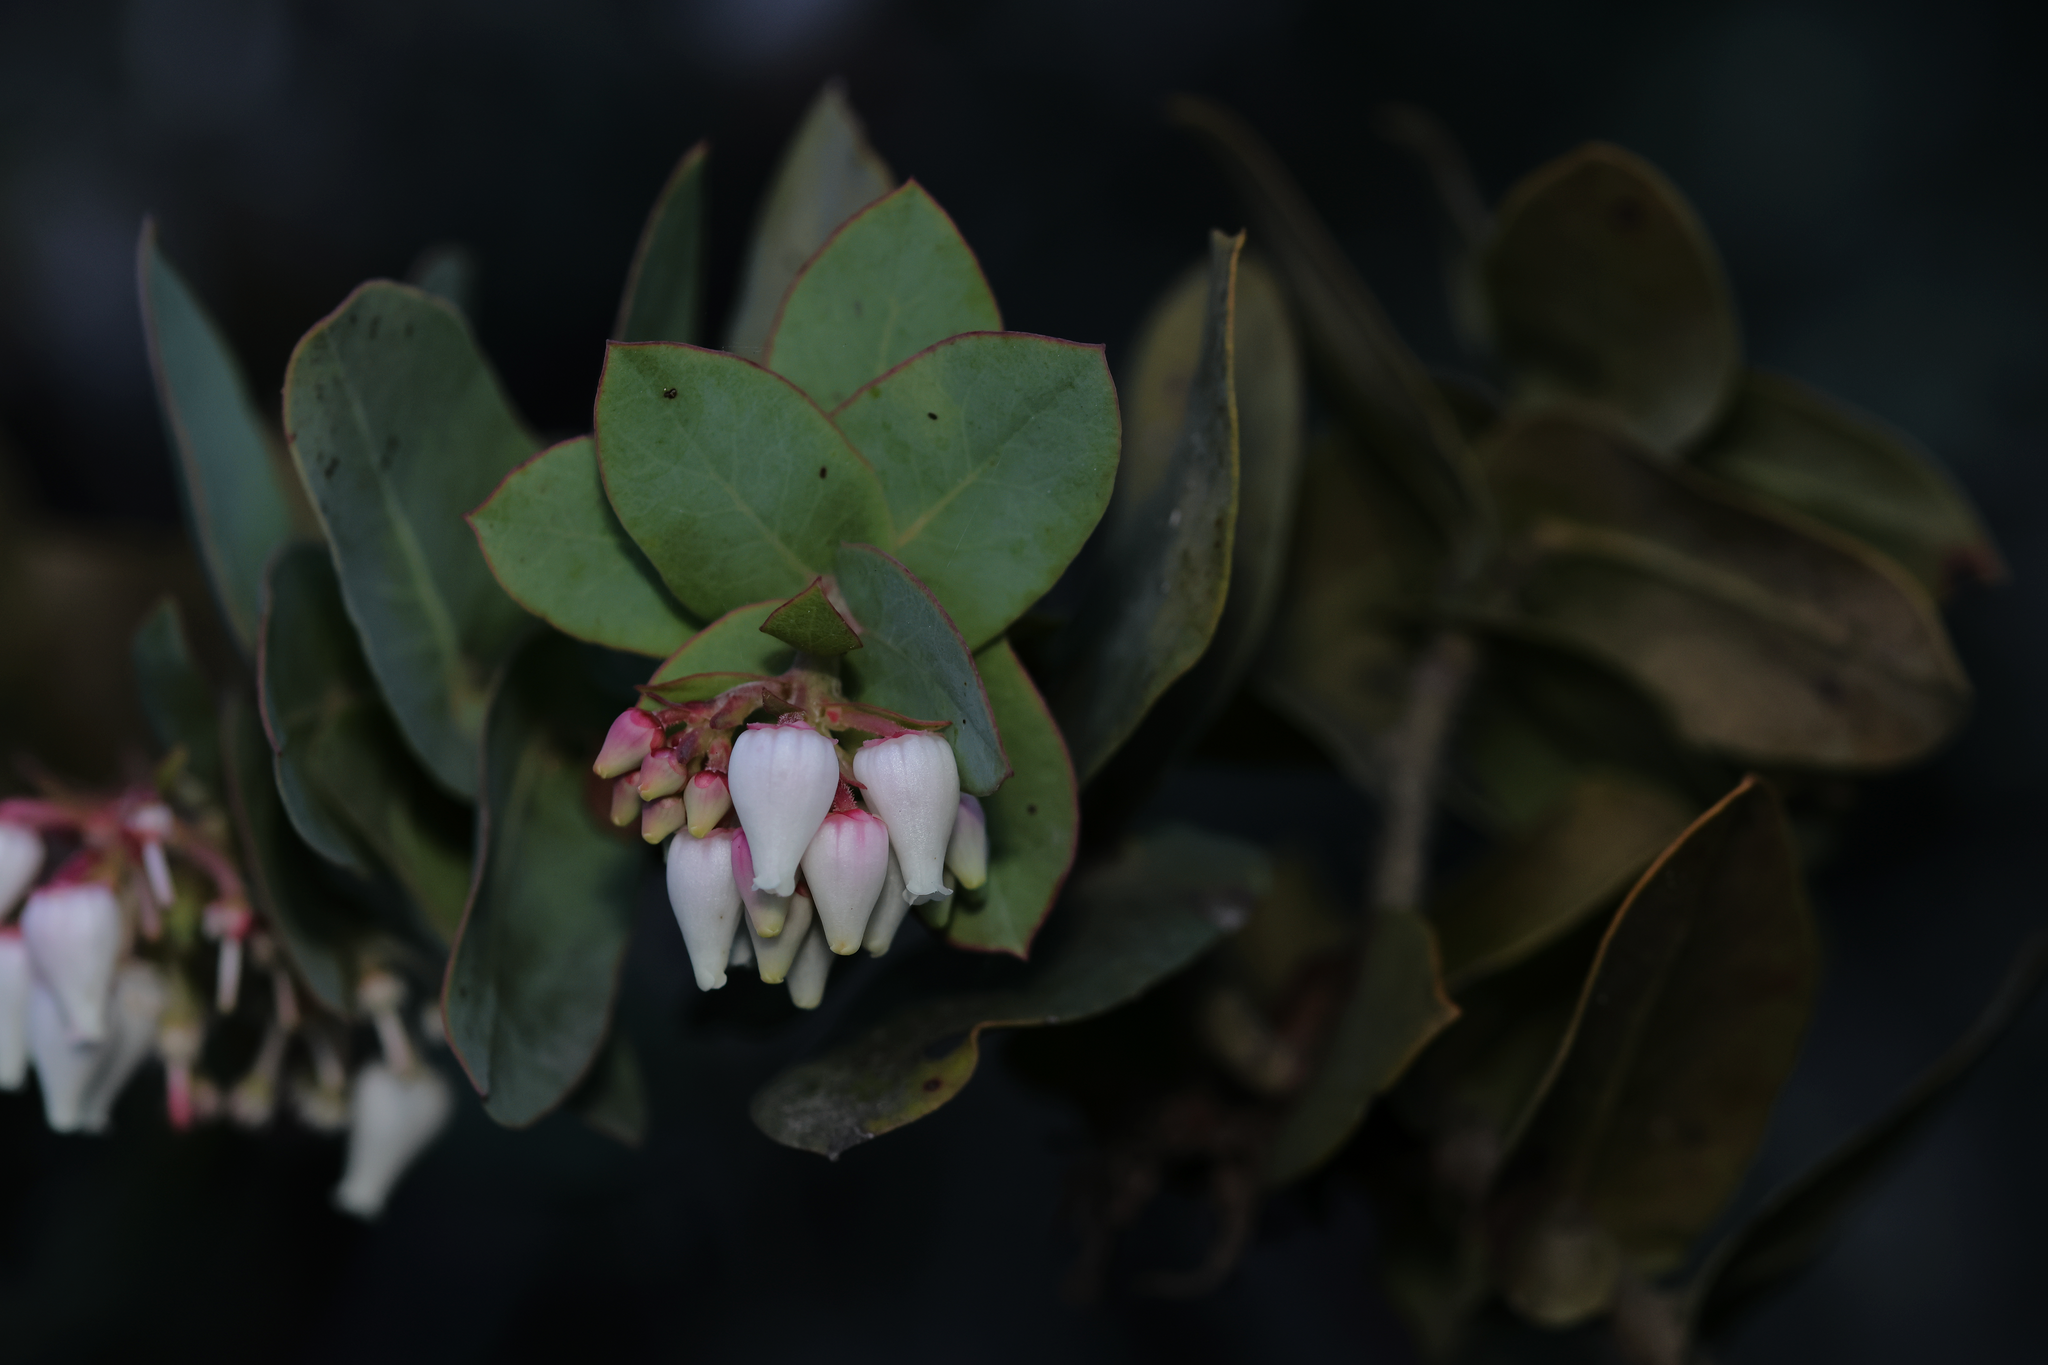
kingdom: Plantae
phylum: Tracheophyta
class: Magnoliopsida
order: Ericales
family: Ericaceae
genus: Arctostaphylos
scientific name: Arctostaphylos pallida
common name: Pallid manzanita
